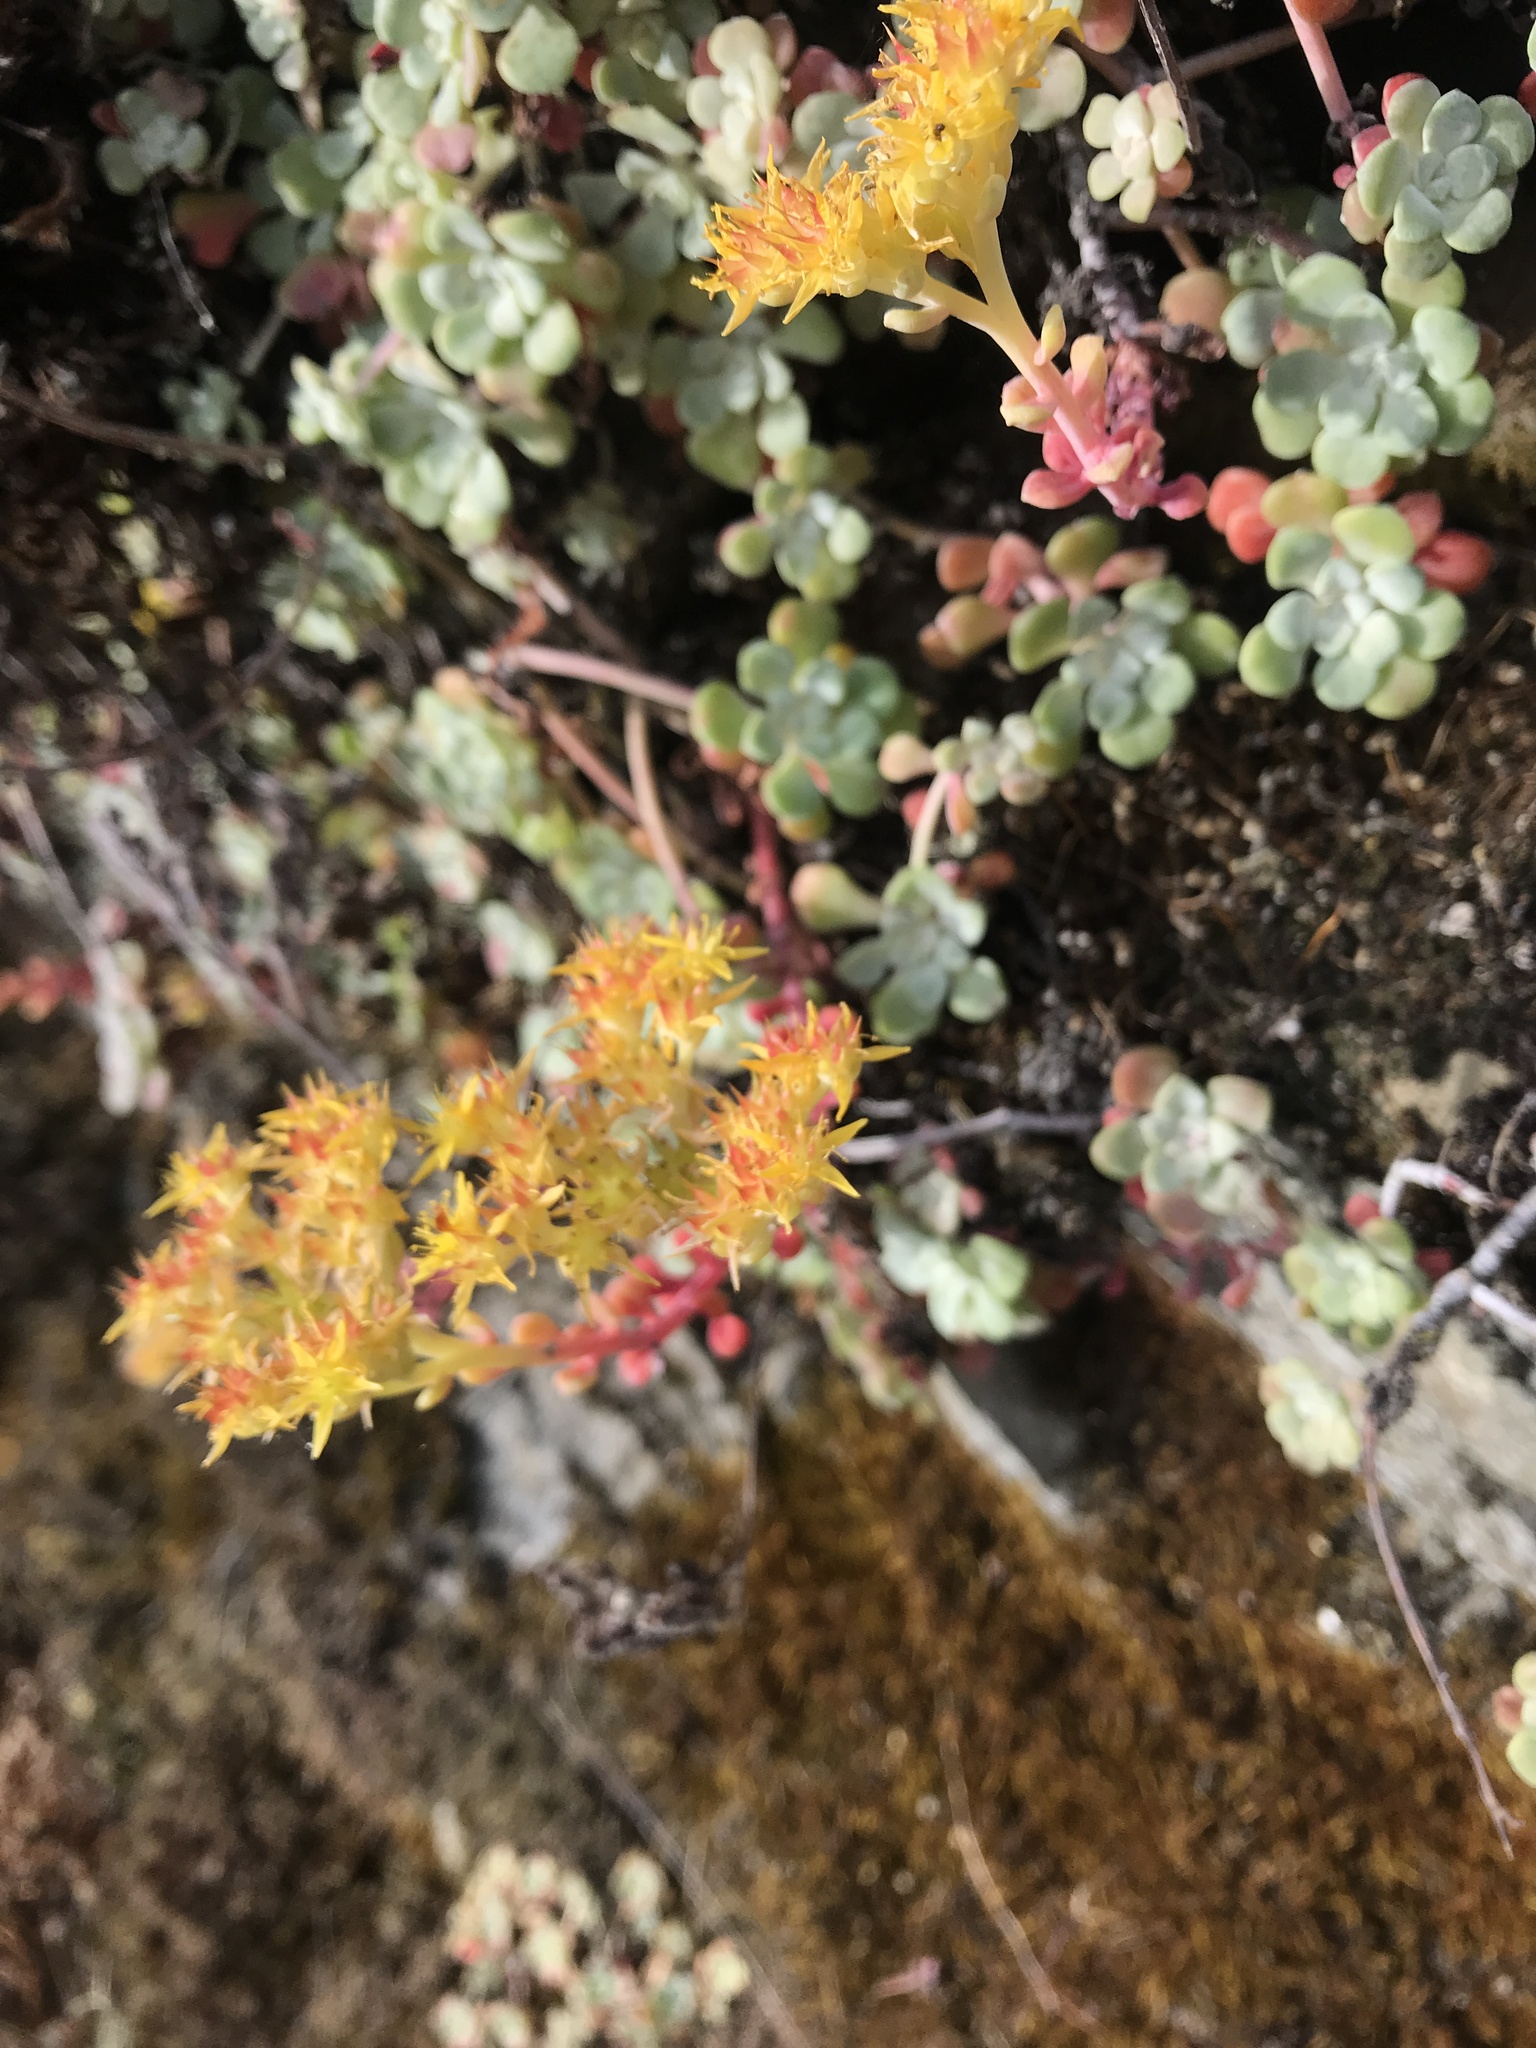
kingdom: Plantae
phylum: Tracheophyta
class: Magnoliopsida
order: Saxifragales
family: Crassulaceae
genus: Sedum
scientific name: Sedum spathulifolium
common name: Colorado stonecrop
